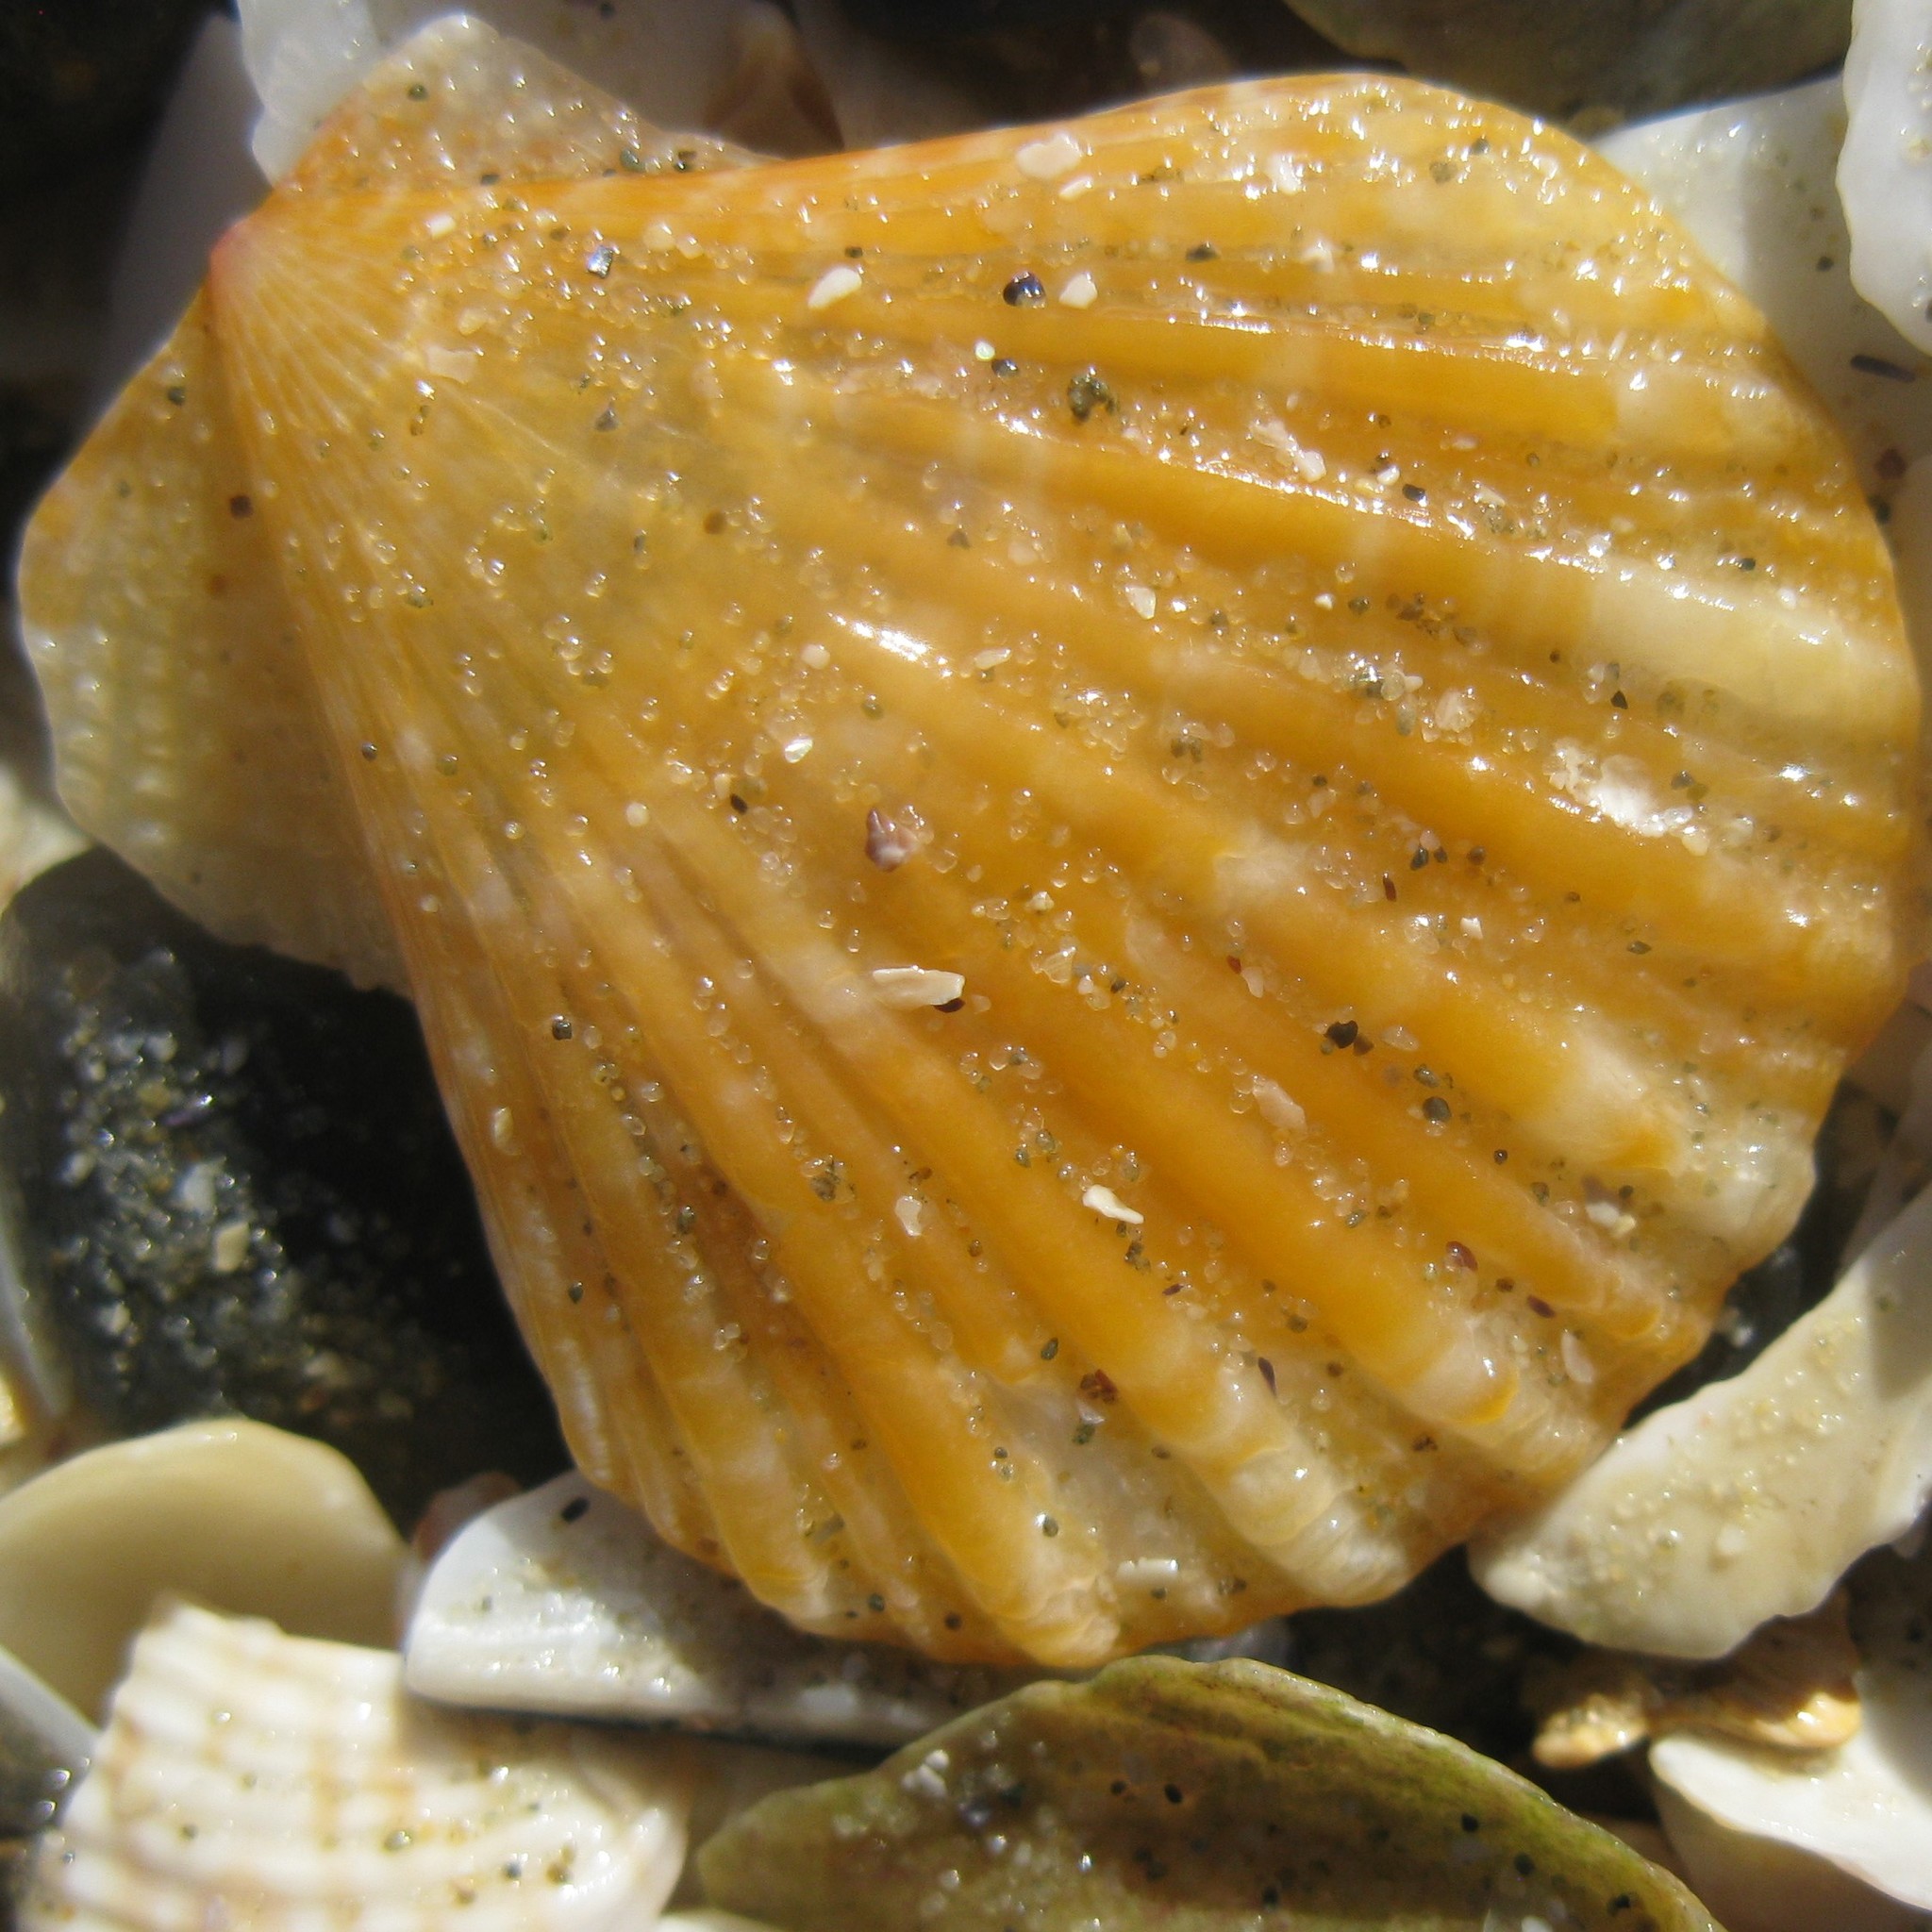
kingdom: Animalia
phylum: Mollusca
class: Bivalvia
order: Pectinida
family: Pectinidae
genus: Talochlamys
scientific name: Talochlamys zelandiae
